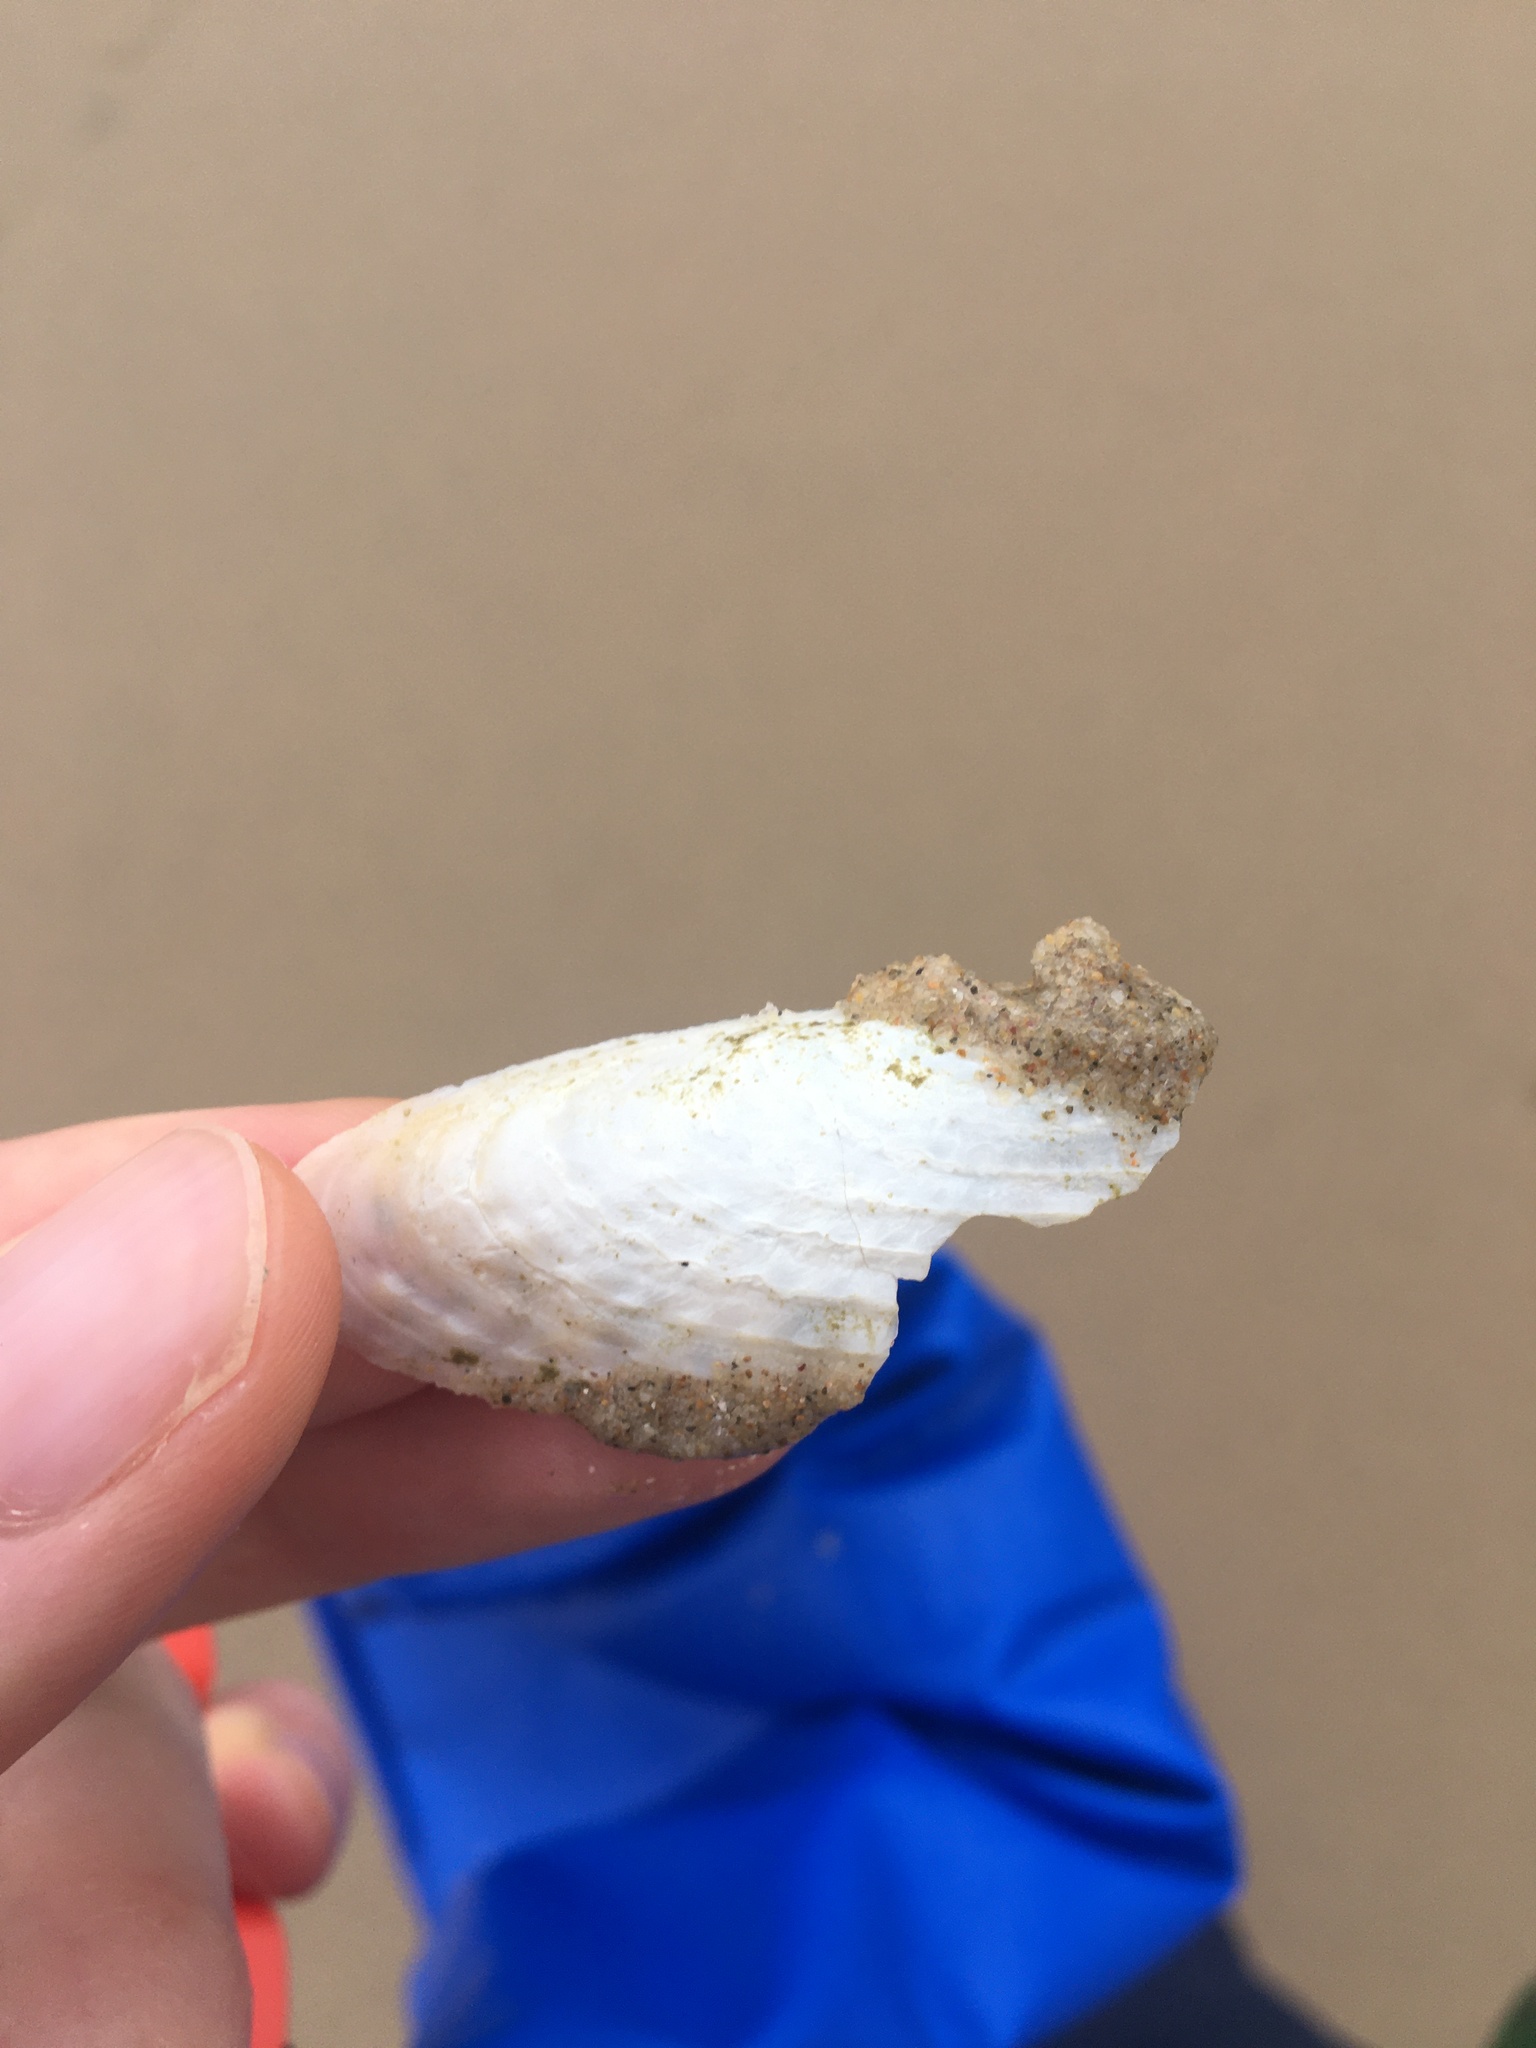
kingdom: Animalia
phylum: Mollusca
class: Bivalvia
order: Myida
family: Pholadidae
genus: Barnea
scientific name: Barnea australasiae
